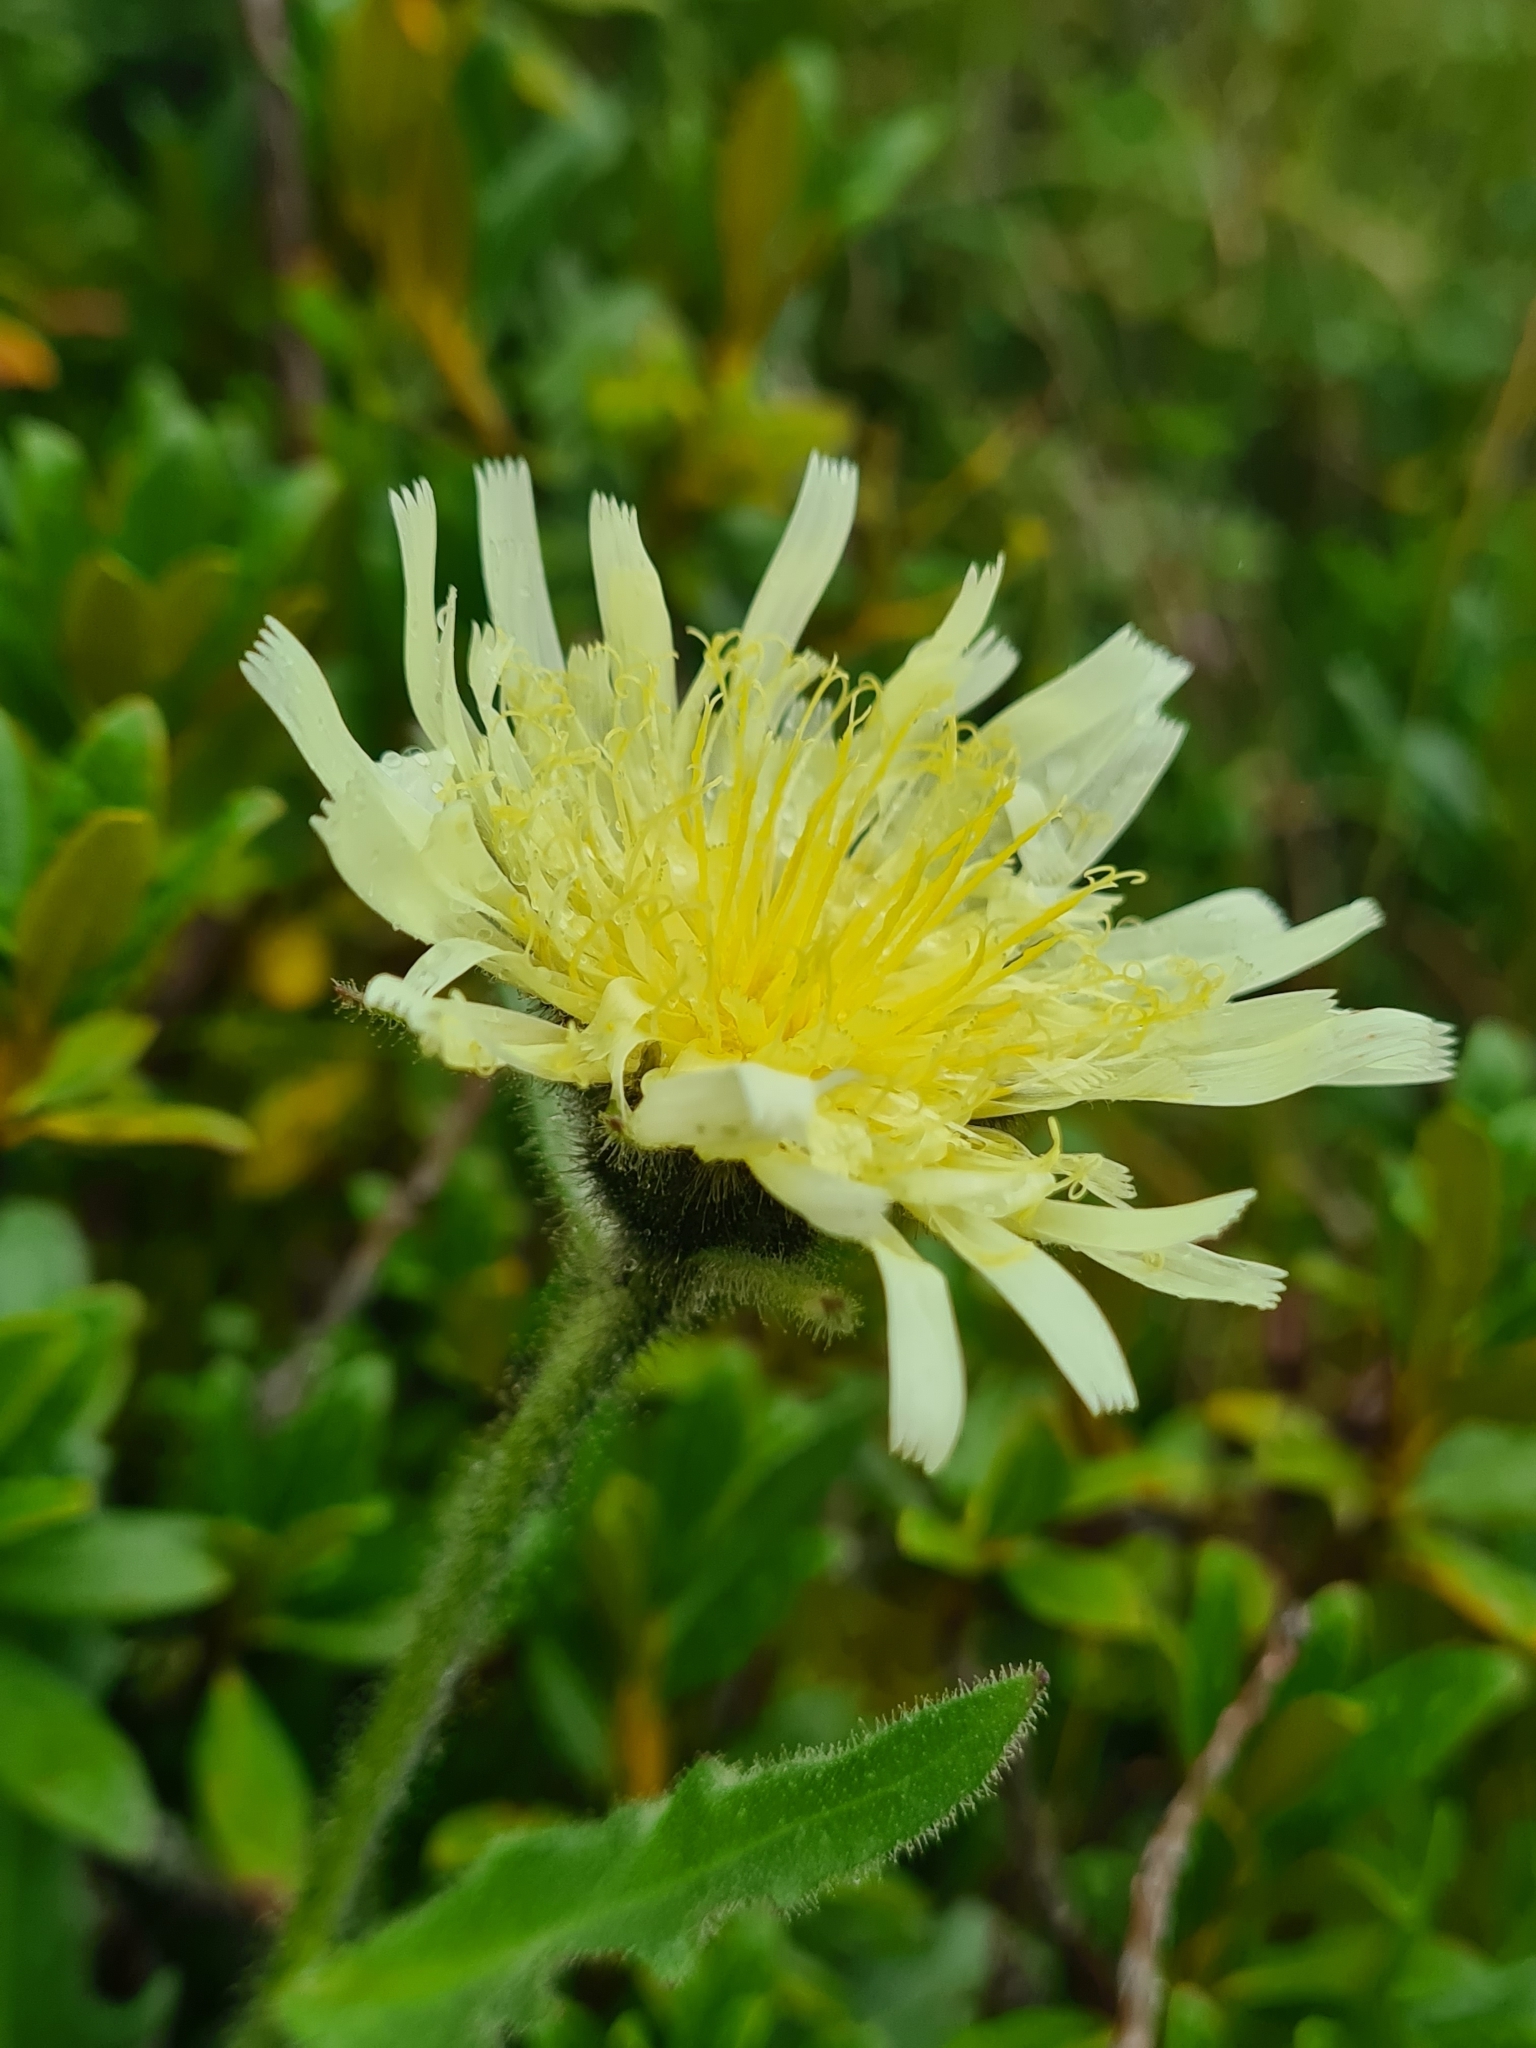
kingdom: Plantae
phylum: Tracheophyta
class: Magnoliopsida
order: Asterales
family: Asteraceae
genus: Schlagintweitia
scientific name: Schlagintweitia intybacea
